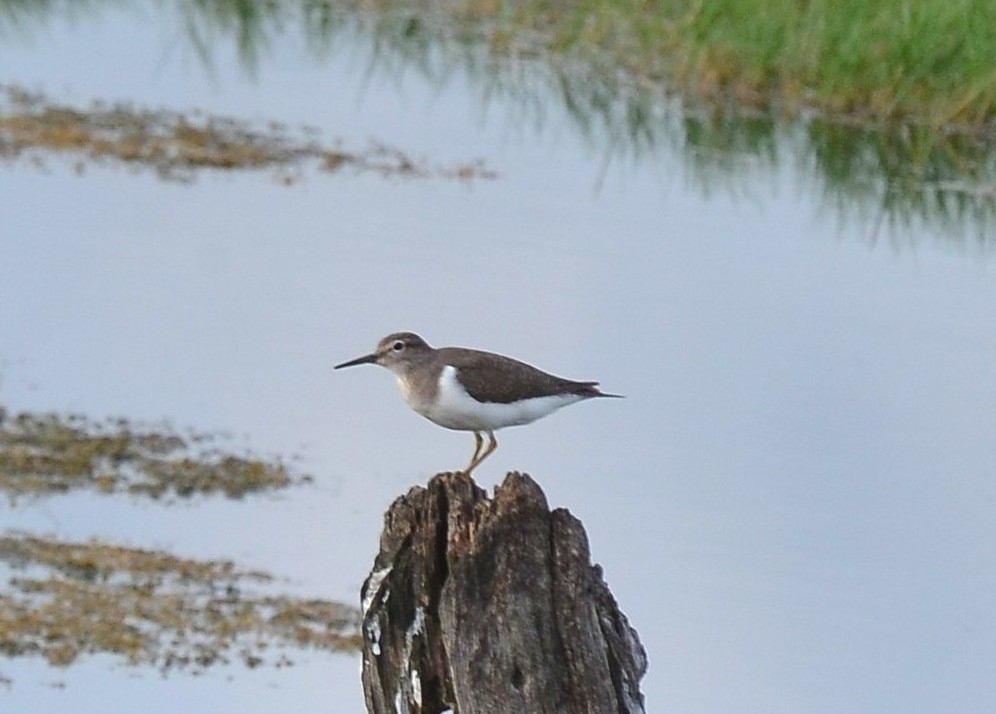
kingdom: Animalia
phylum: Chordata
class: Aves
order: Charadriiformes
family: Scolopacidae
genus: Actitis
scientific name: Actitis hypoleucos
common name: Common sandpiper
